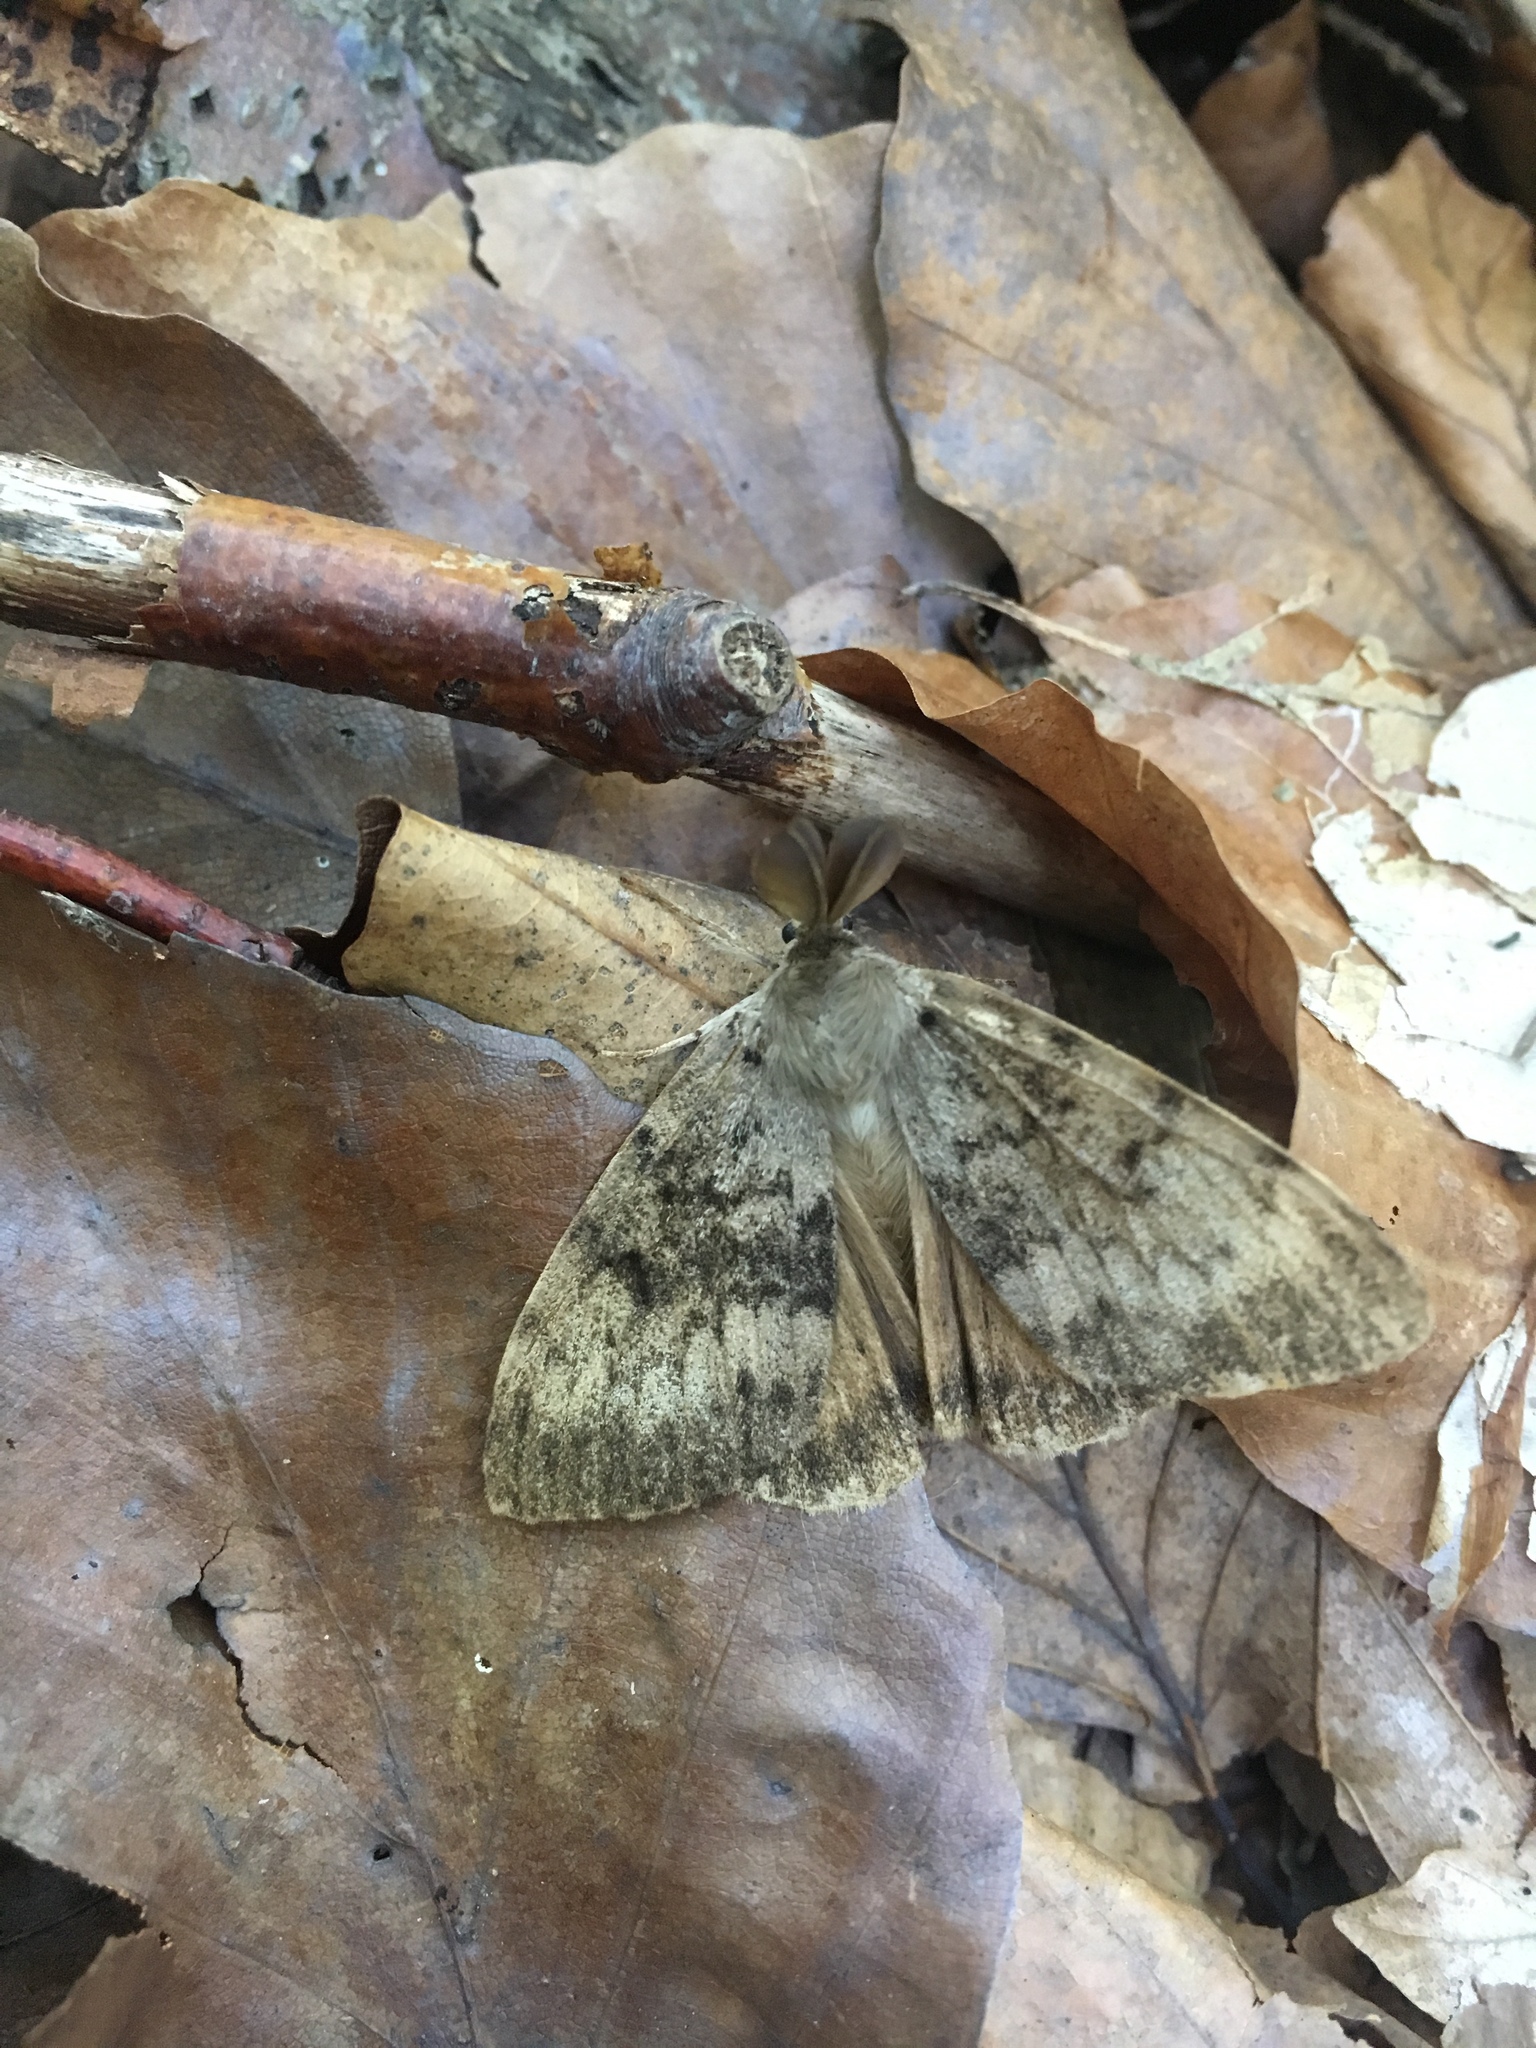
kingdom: Animalia
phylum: Arthropoda
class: Insecta
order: Lepidoptera
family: Erebidae
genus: Lymantria
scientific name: Lymantria dispar
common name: Gypsy moth
